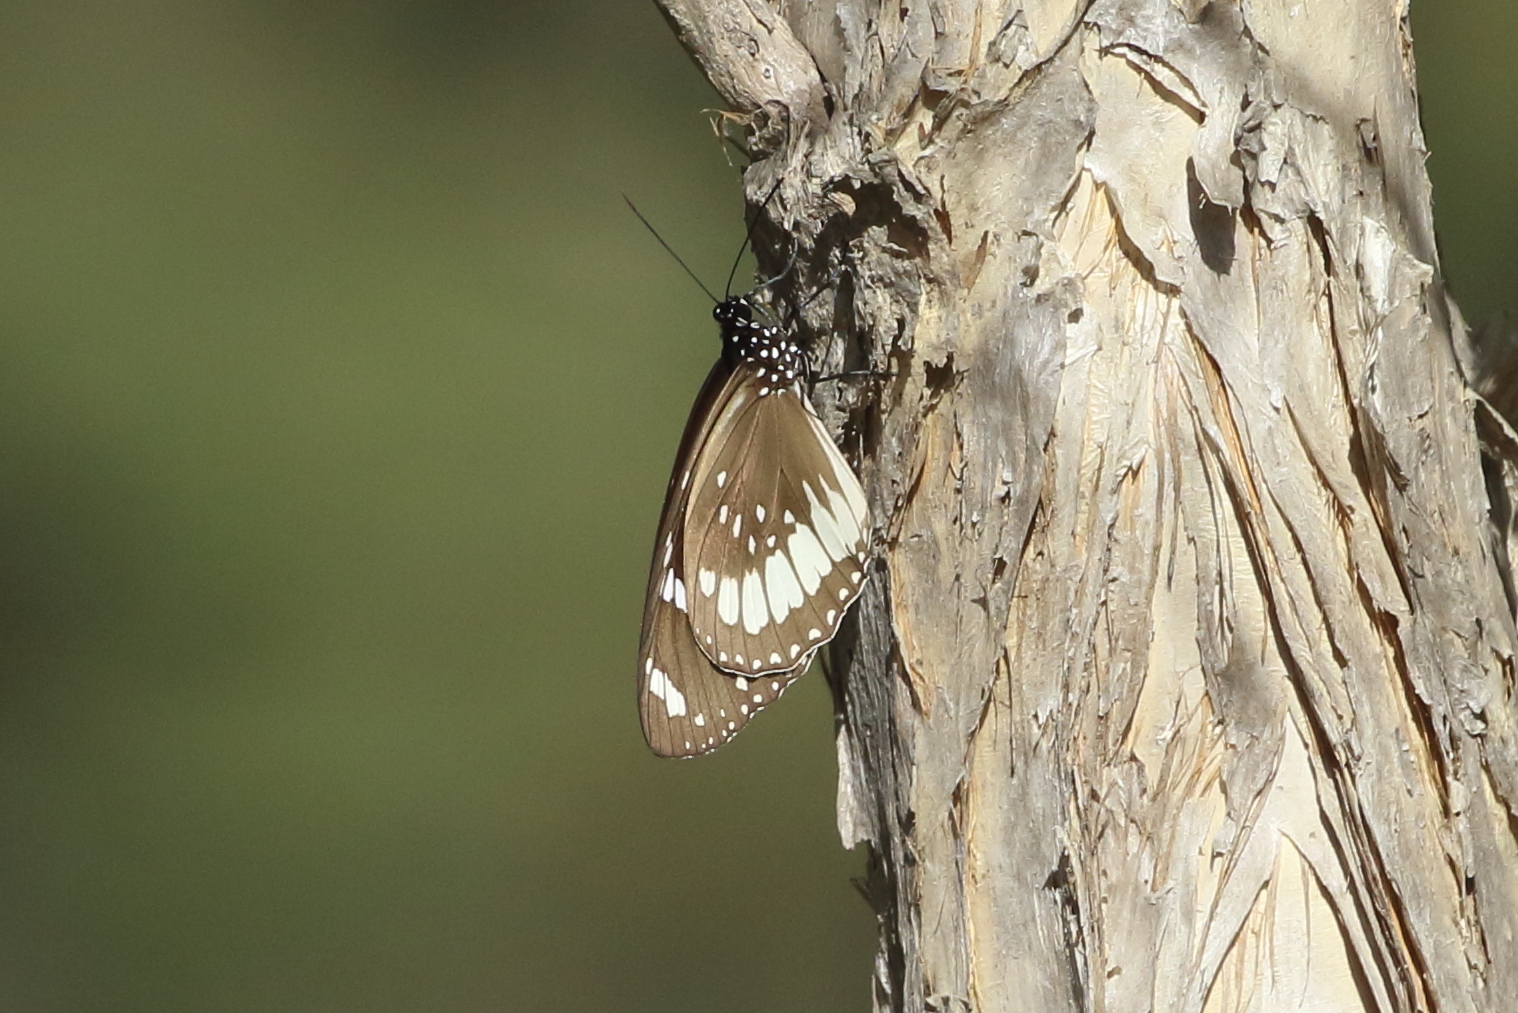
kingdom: Animalia
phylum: Arthropoda
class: Insecta
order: Lepidoptera
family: Nymphalidae
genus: Euploea
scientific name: Euploea sylvester
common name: Double-branded crow butterfly
